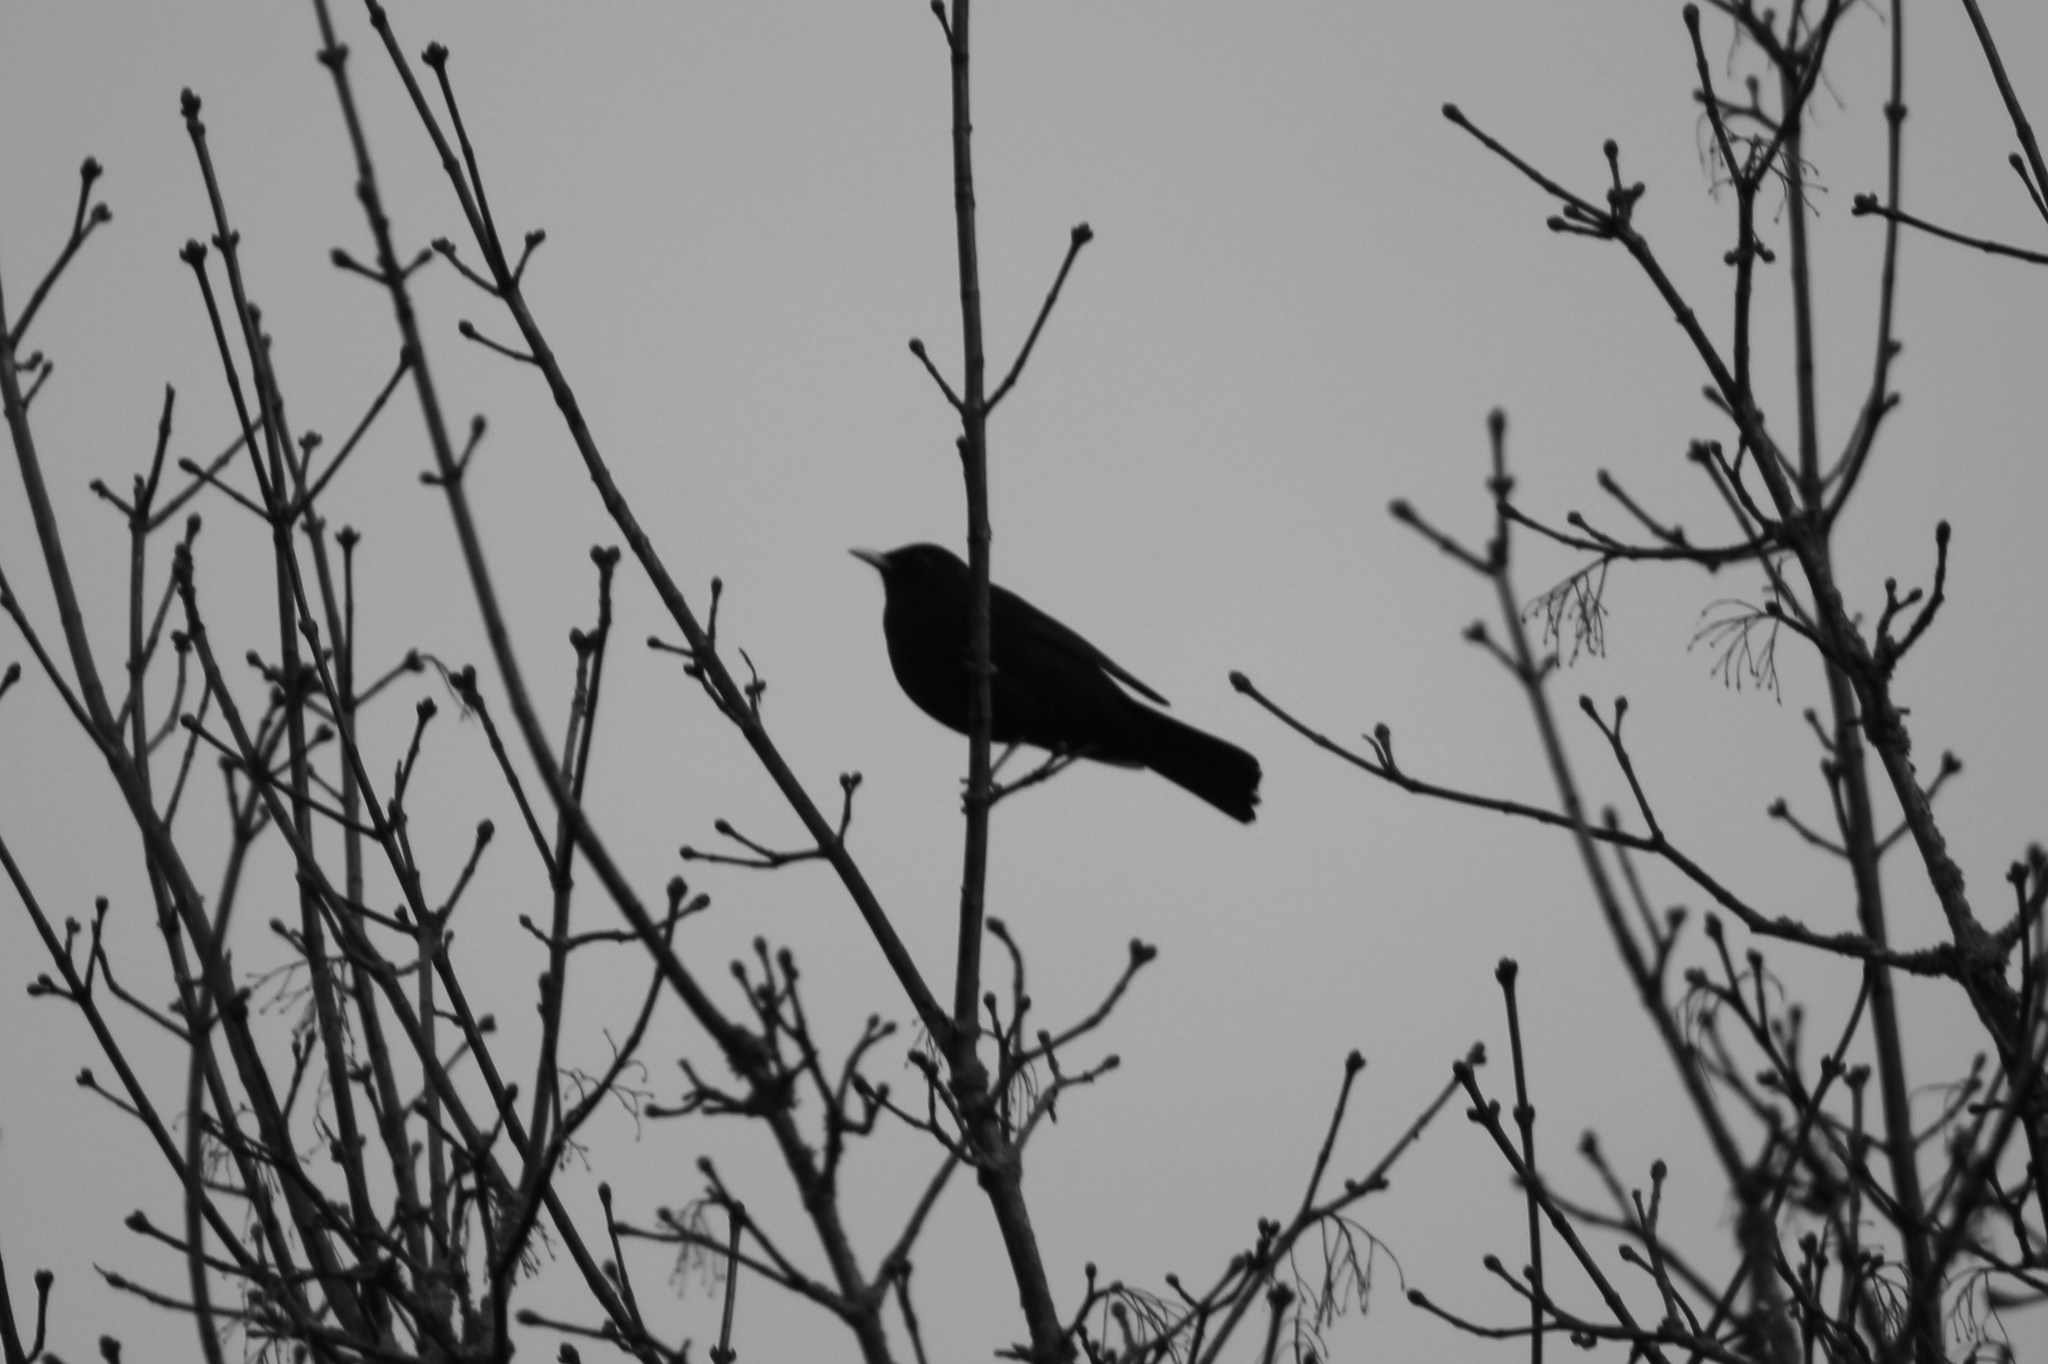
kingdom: Animalia
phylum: Chordata
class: Aves
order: Passeriformes
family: Turdidae
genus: Turdus
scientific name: Turdus merula
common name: Common blackbird
